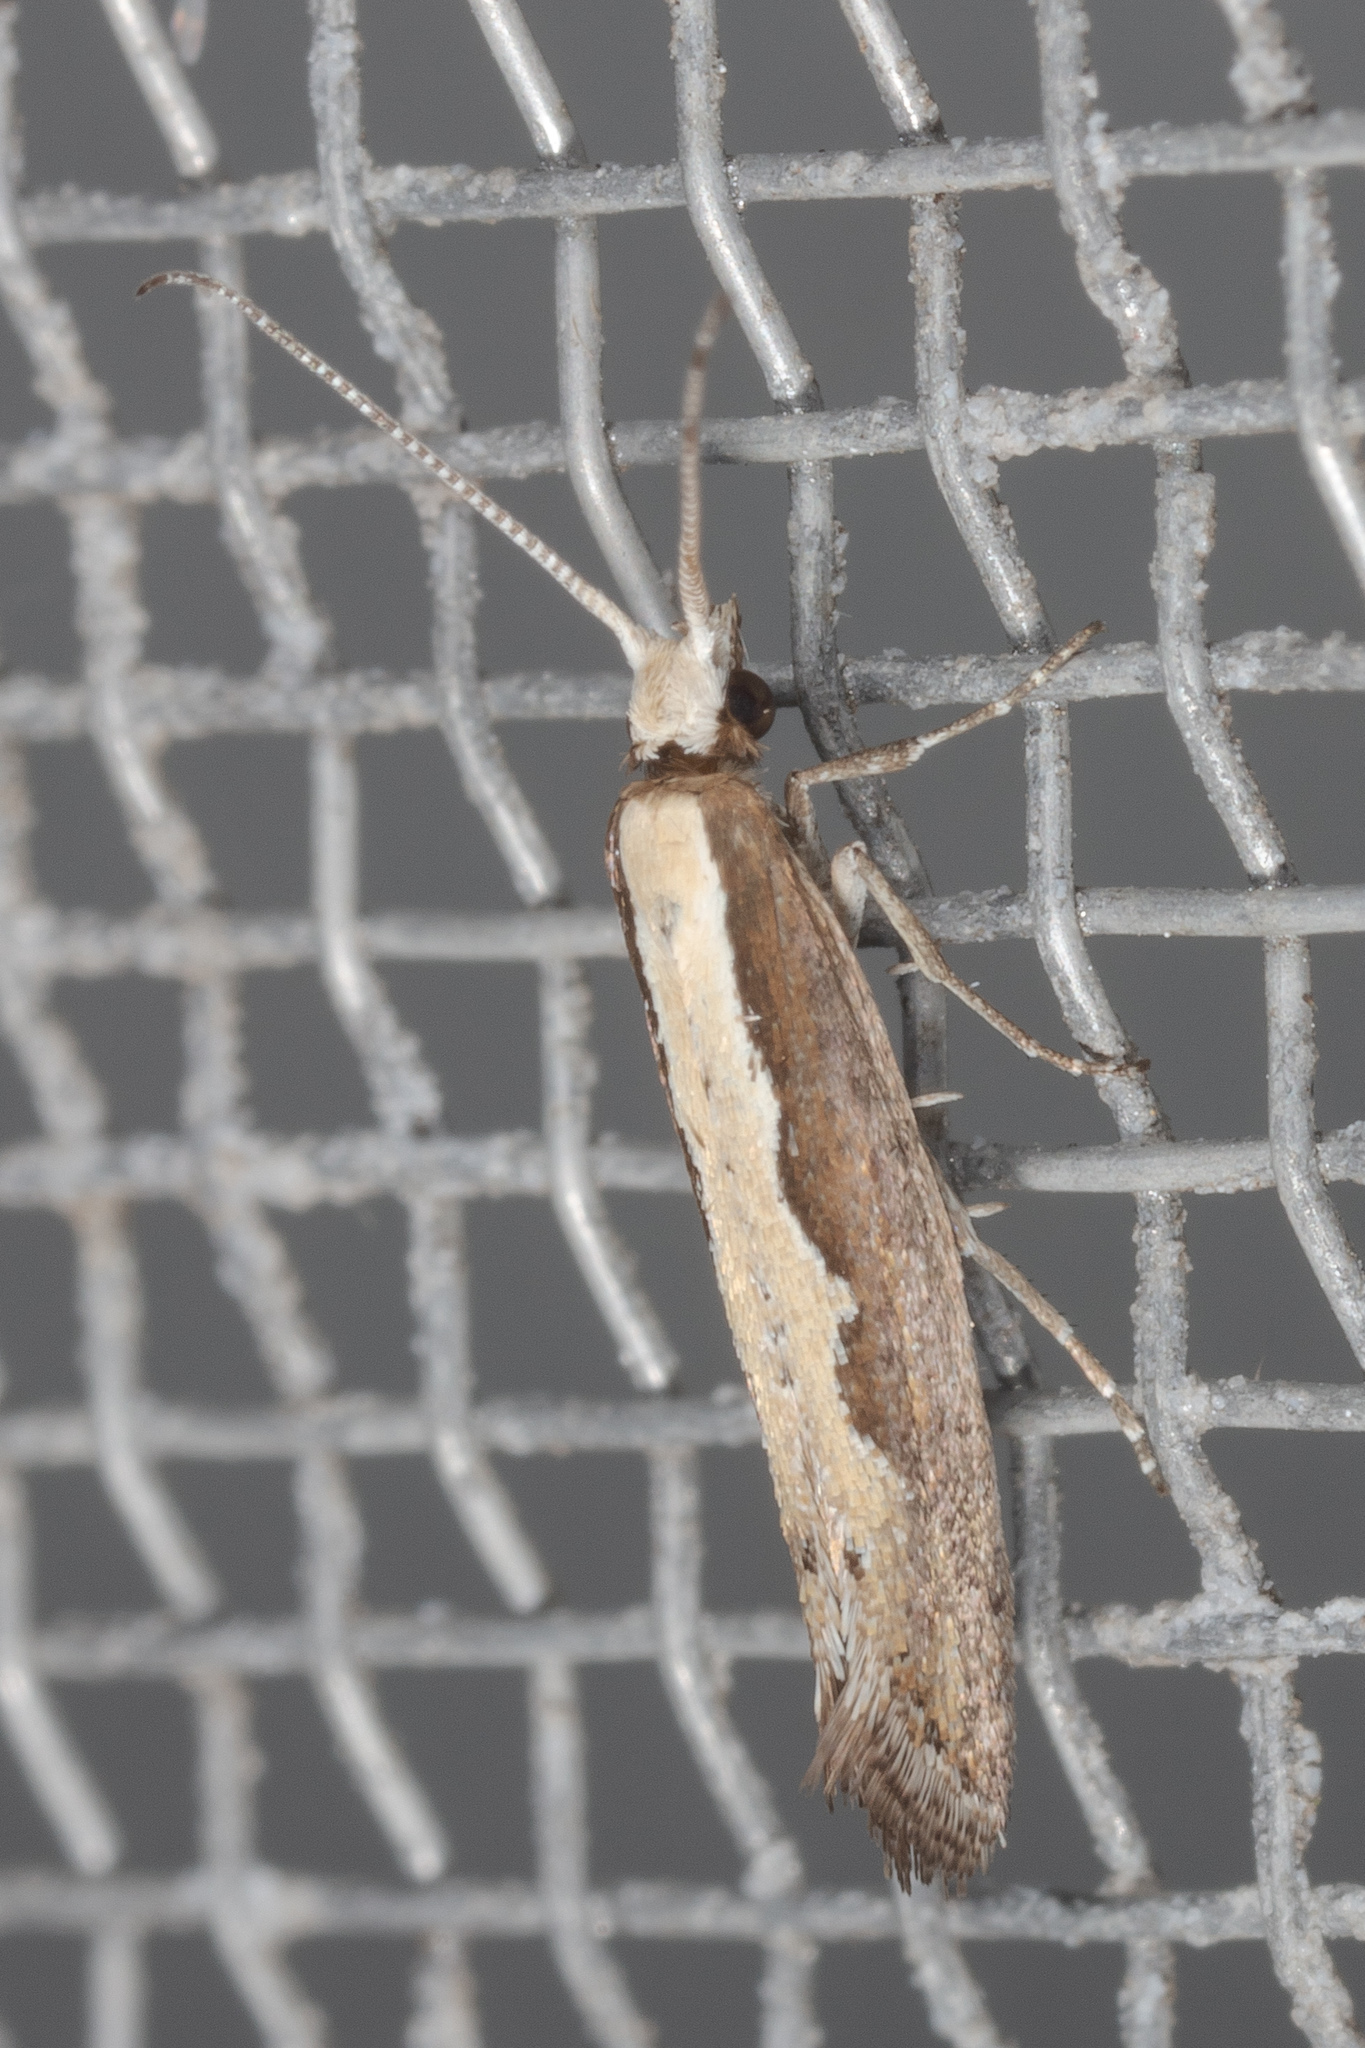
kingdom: Animalia
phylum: Arthropoda
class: Insecta
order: Lepidoptera
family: Plutellidae
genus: Plutella
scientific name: Plutella xylostella
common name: Diamond-back moth
